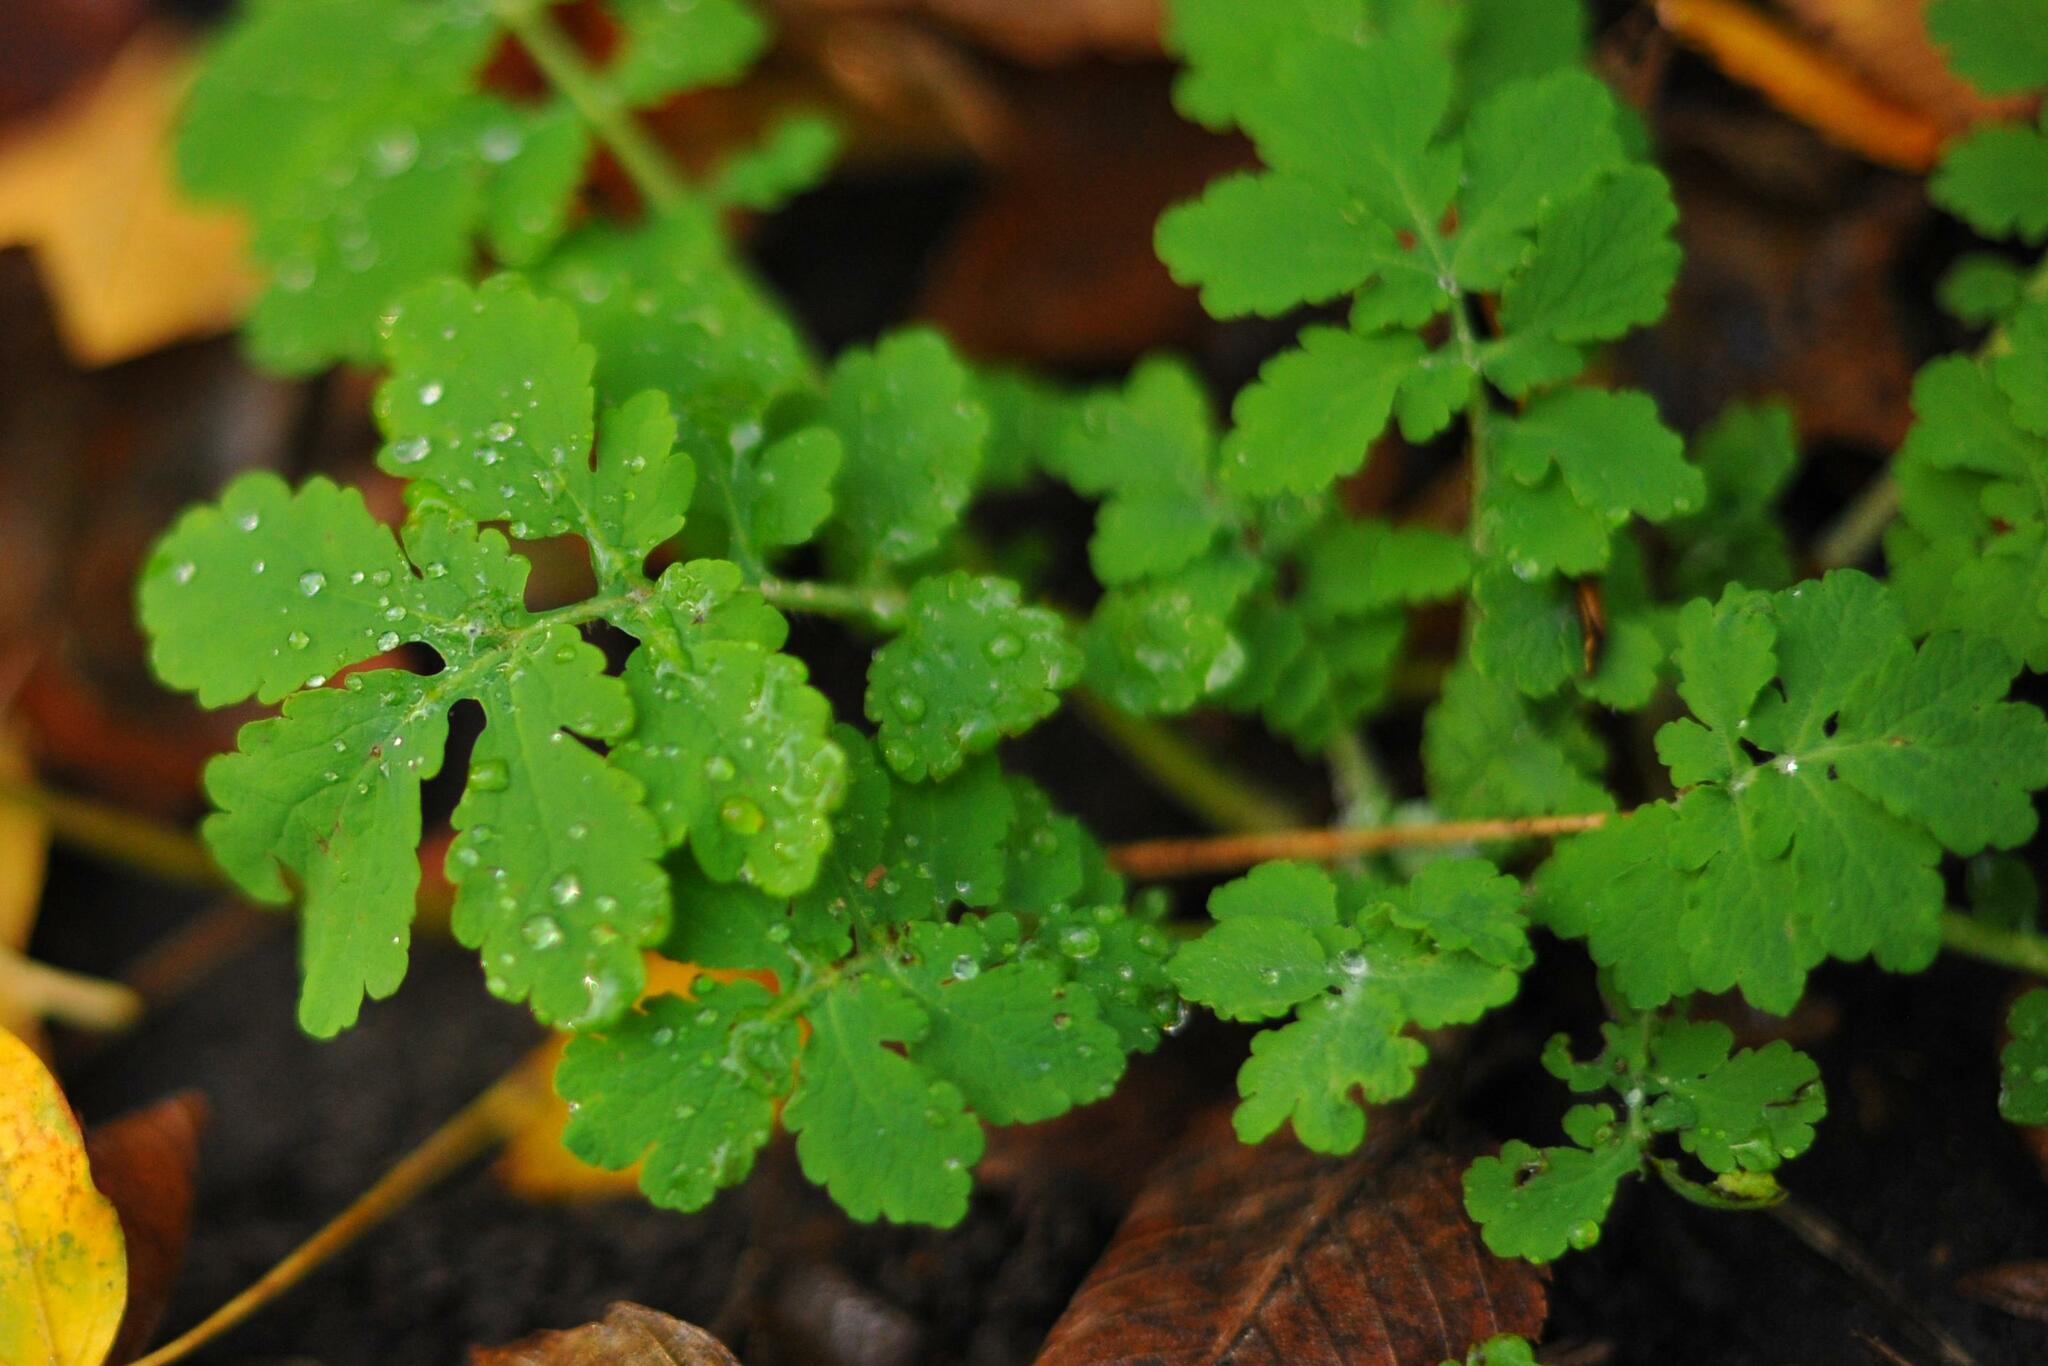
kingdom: Plantae
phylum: Tracheophyta
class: Magnoliopsida
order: Ranunculales
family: Papaveraceae
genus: Chelidonium
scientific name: Chelidonium majus
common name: Greater celandine
